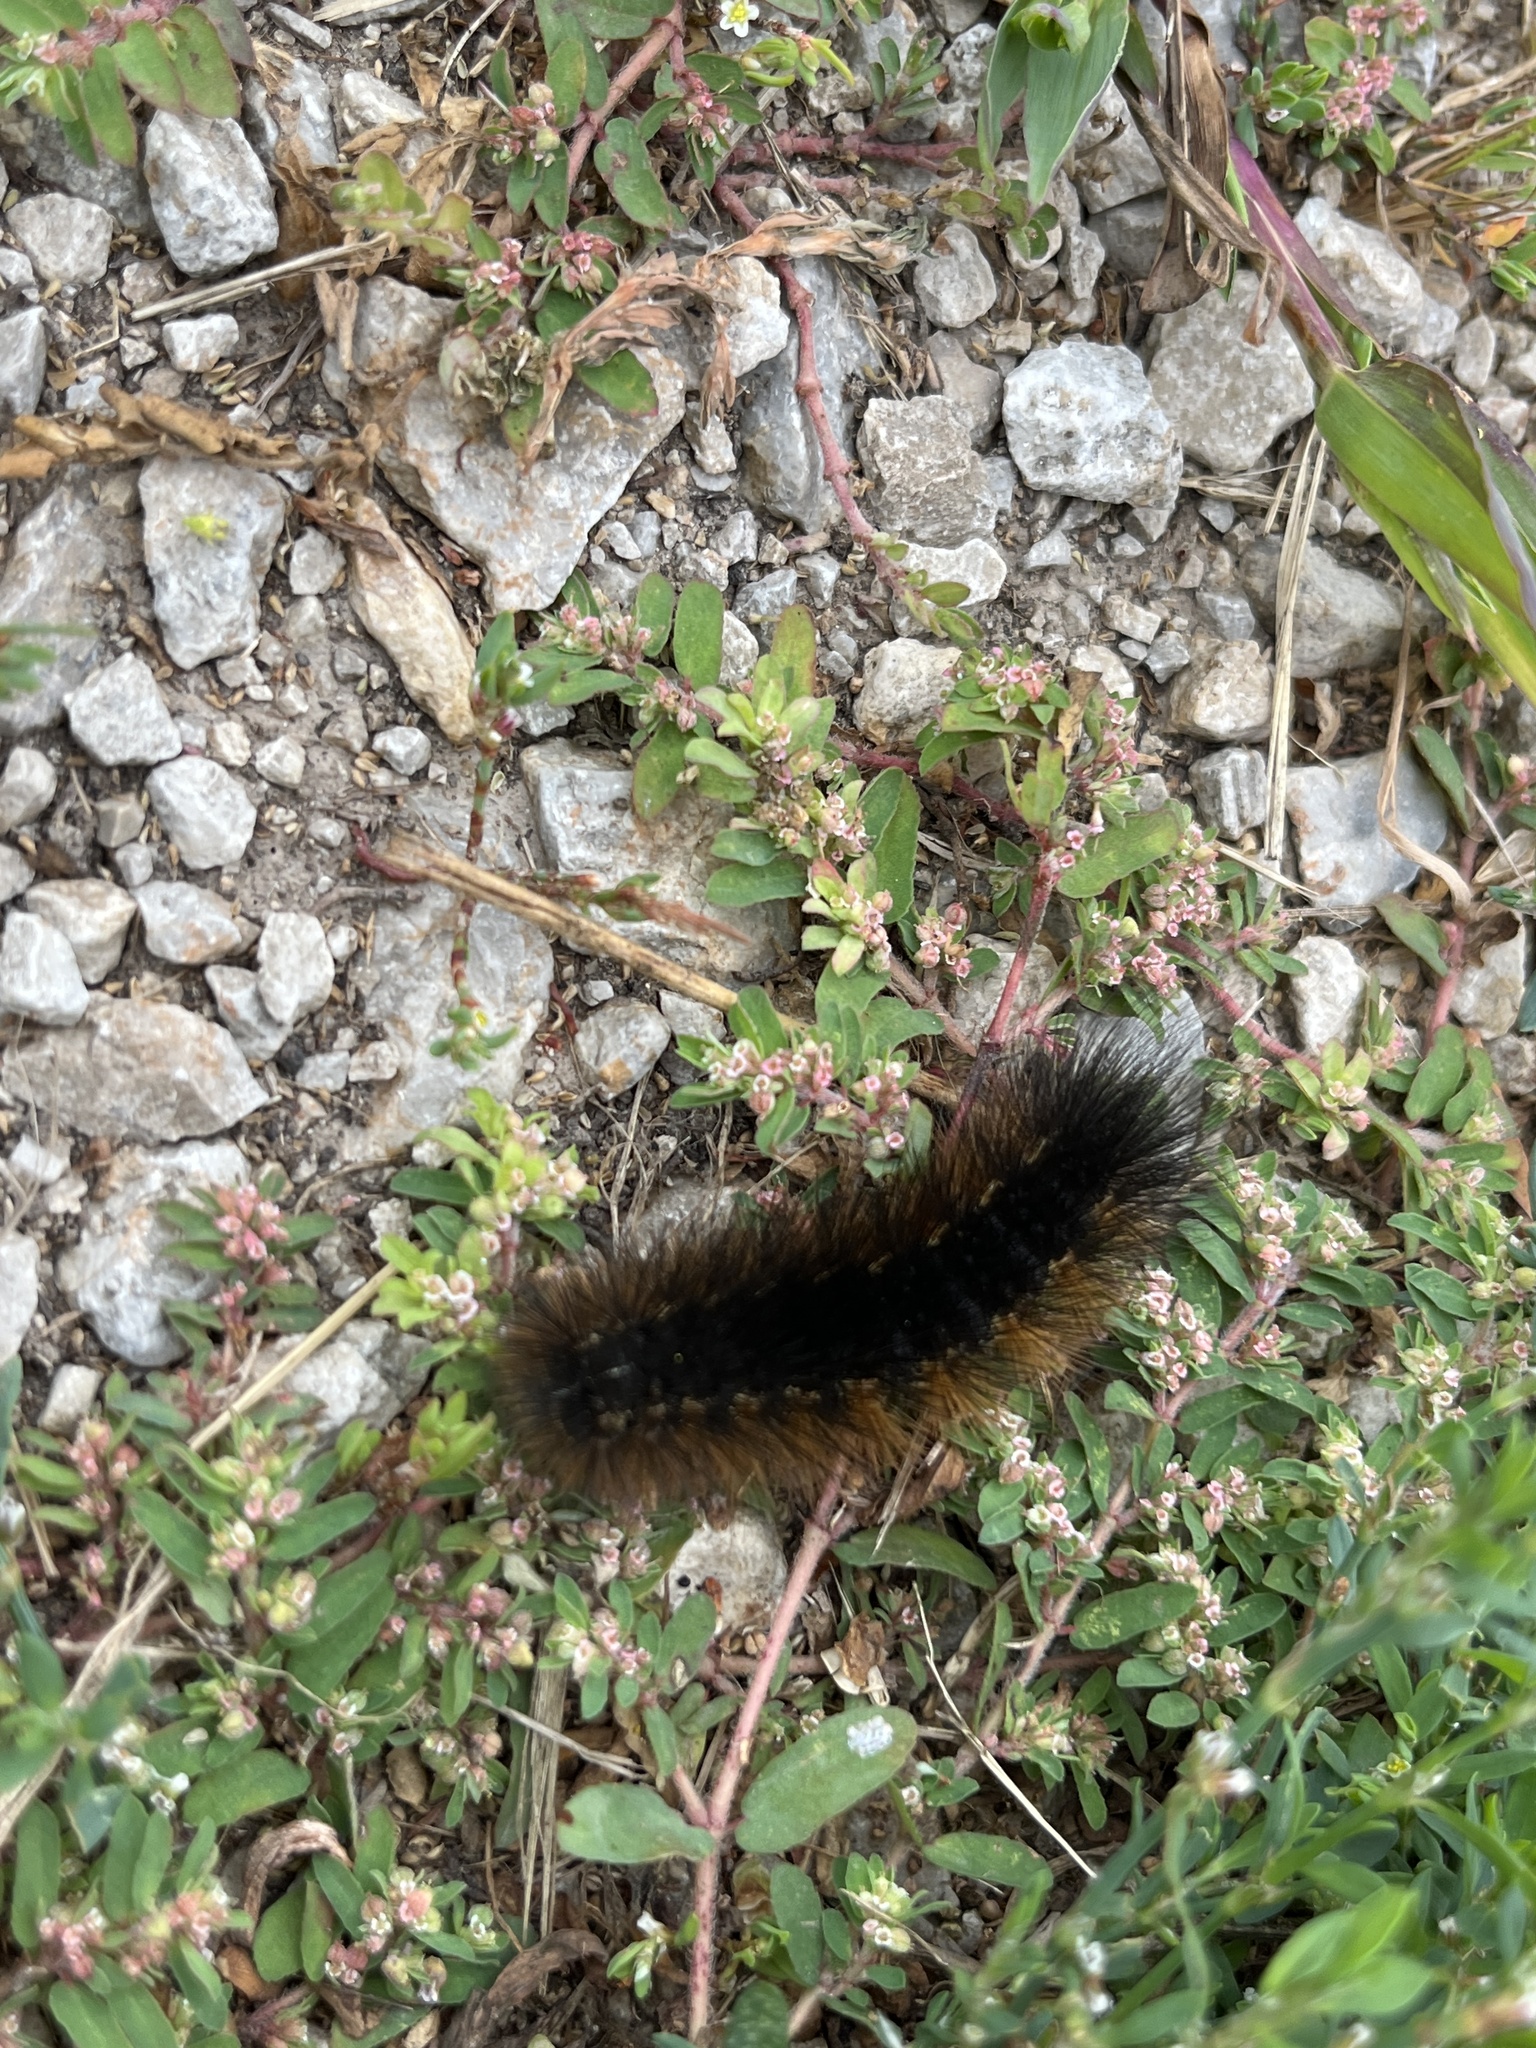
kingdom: Animalia
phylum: Arthropoda
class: Insecta
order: Lepidoptera
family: Erebidae
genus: Estigmene
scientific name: Estigmene acrea
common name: Salt marsh moth
